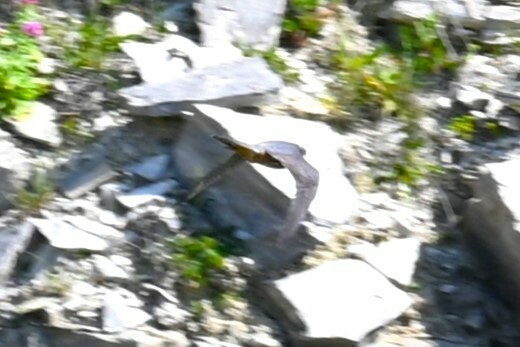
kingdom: Animalia
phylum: Chordata
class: Aves
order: Falconiformes
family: Falconidae
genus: Falco
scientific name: Falco subbuteo
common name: Eurasian hobby
